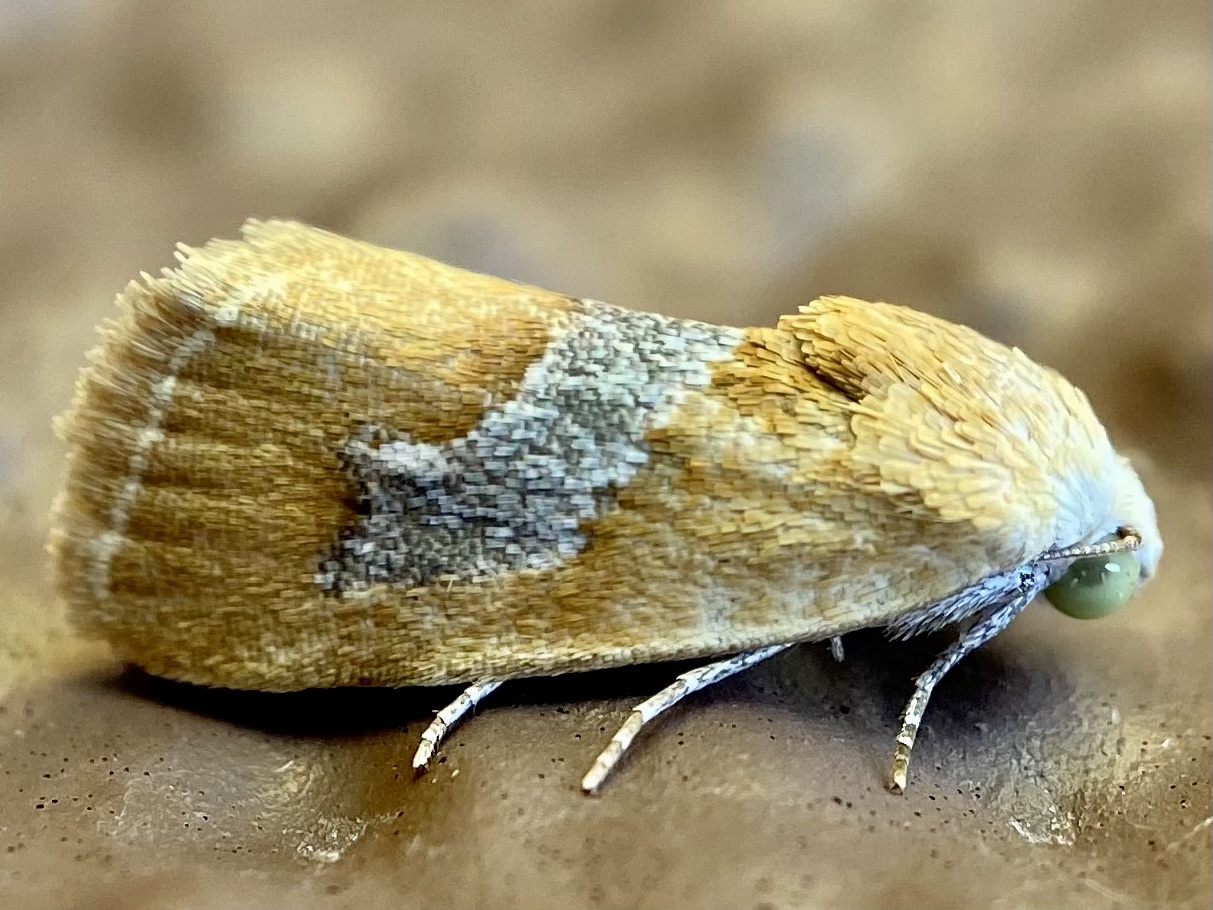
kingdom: Animalia
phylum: Arthropoda
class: Insecta
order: Lepidoptera
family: Noctuidae
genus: Ponometia
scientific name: Ponometia venustula
